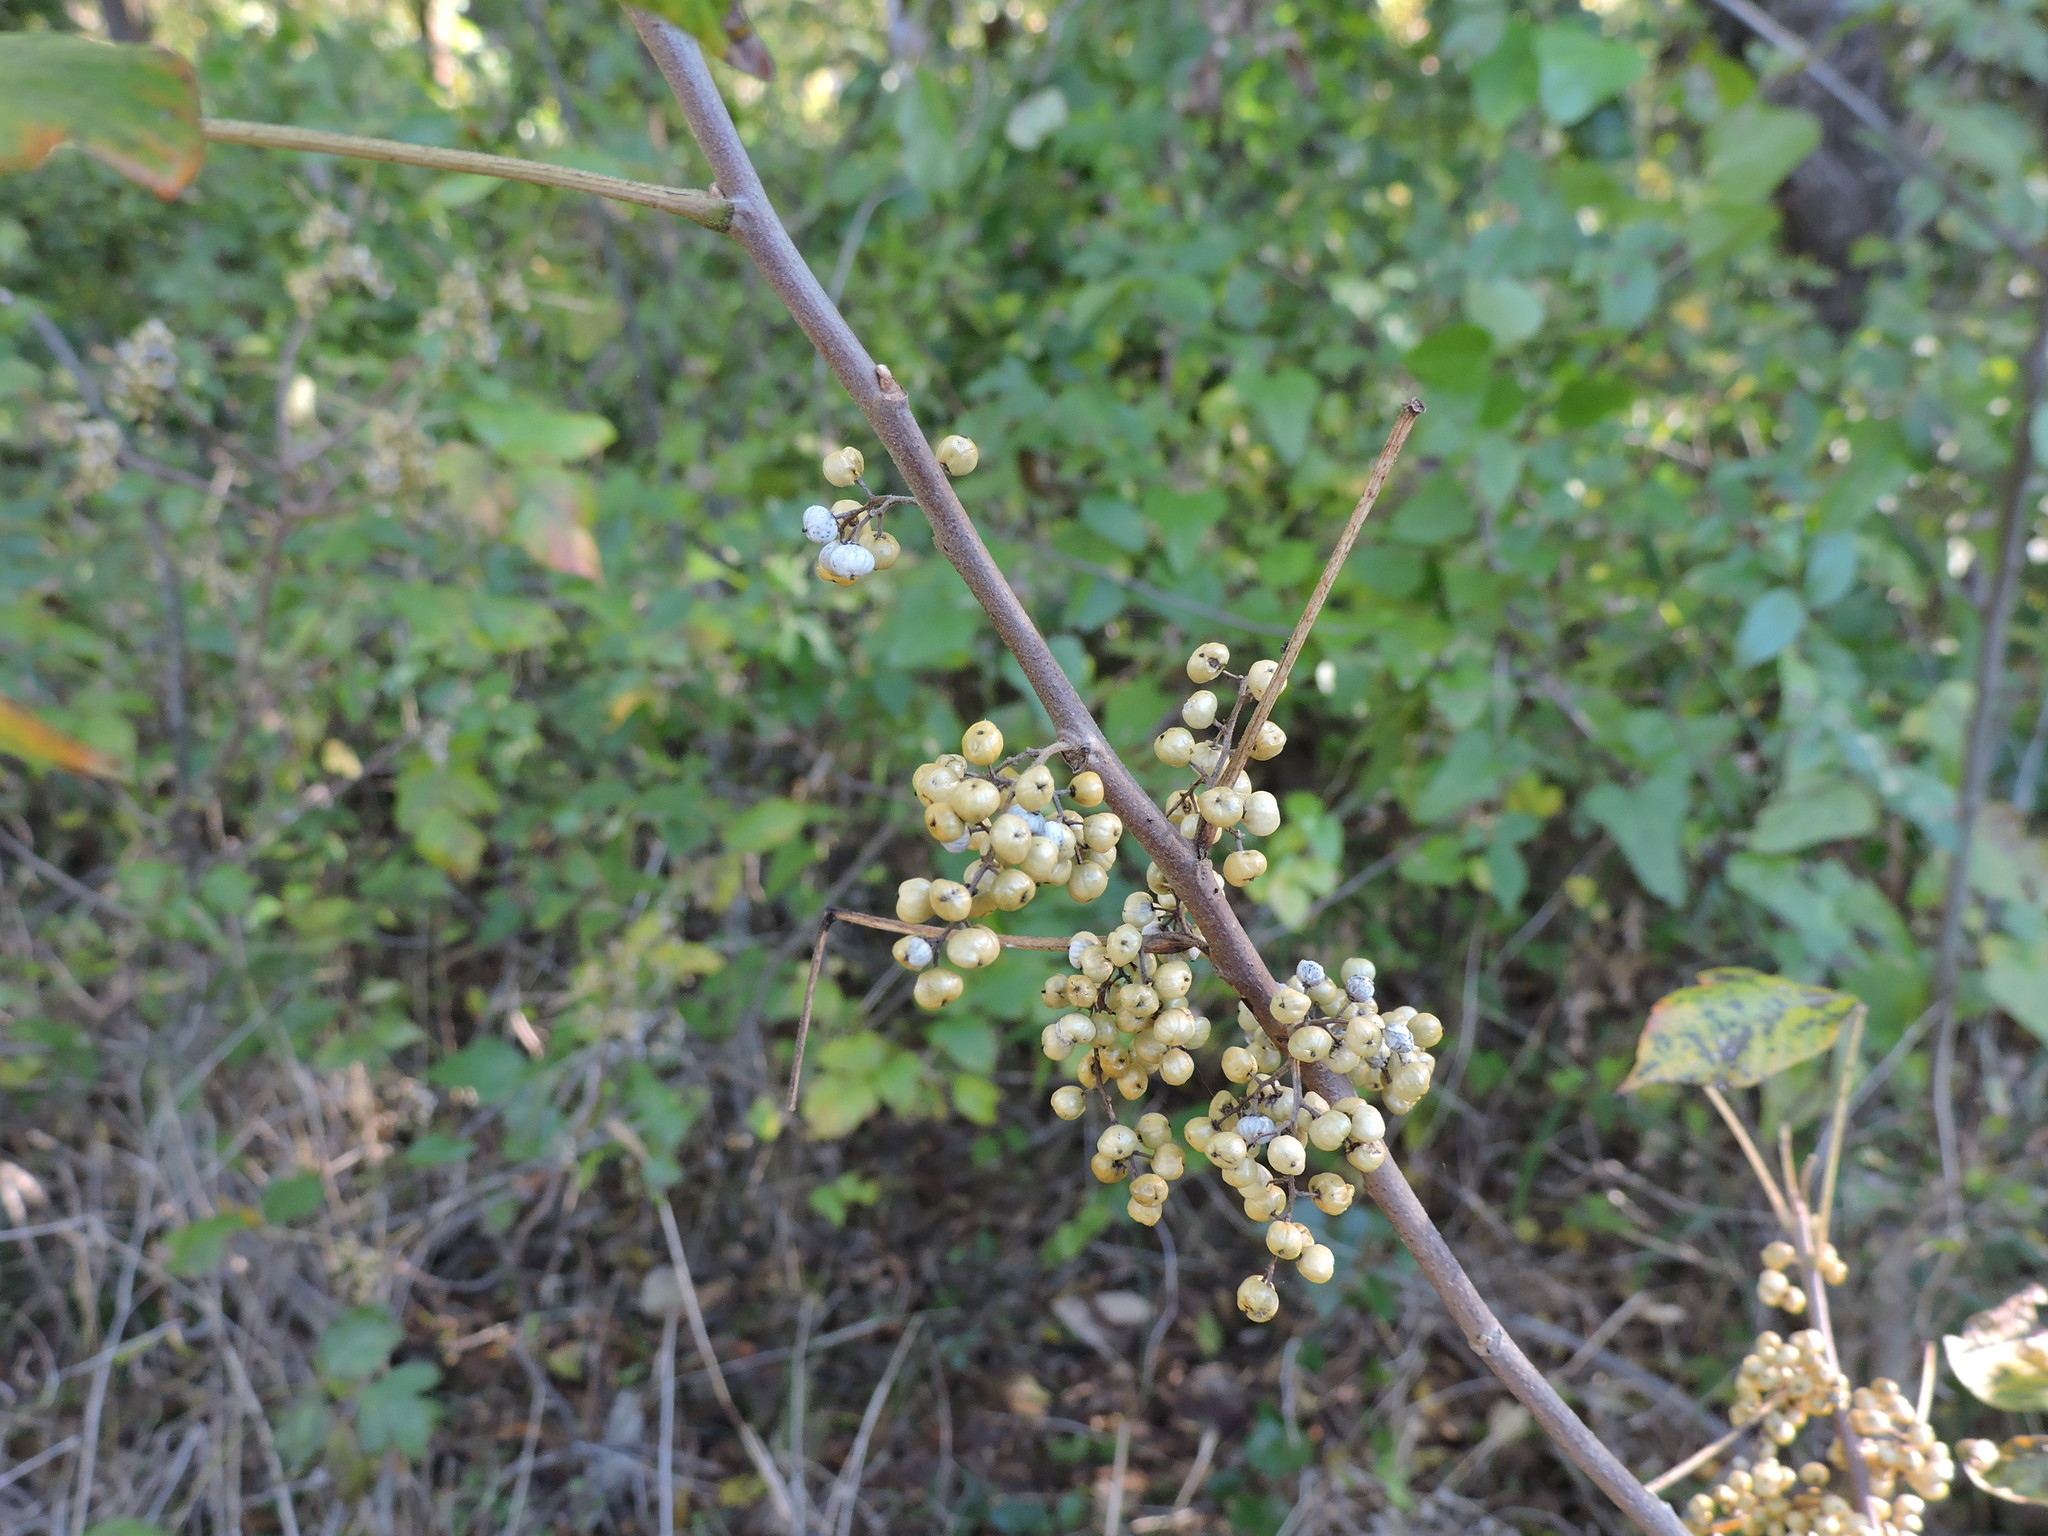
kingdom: Plantae
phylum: Tracheophyta
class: Magnoliopsida
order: Sapindales
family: Anacardiaceae
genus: Toxicodendron
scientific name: Toxicodendron radicans
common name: Poison ivy
